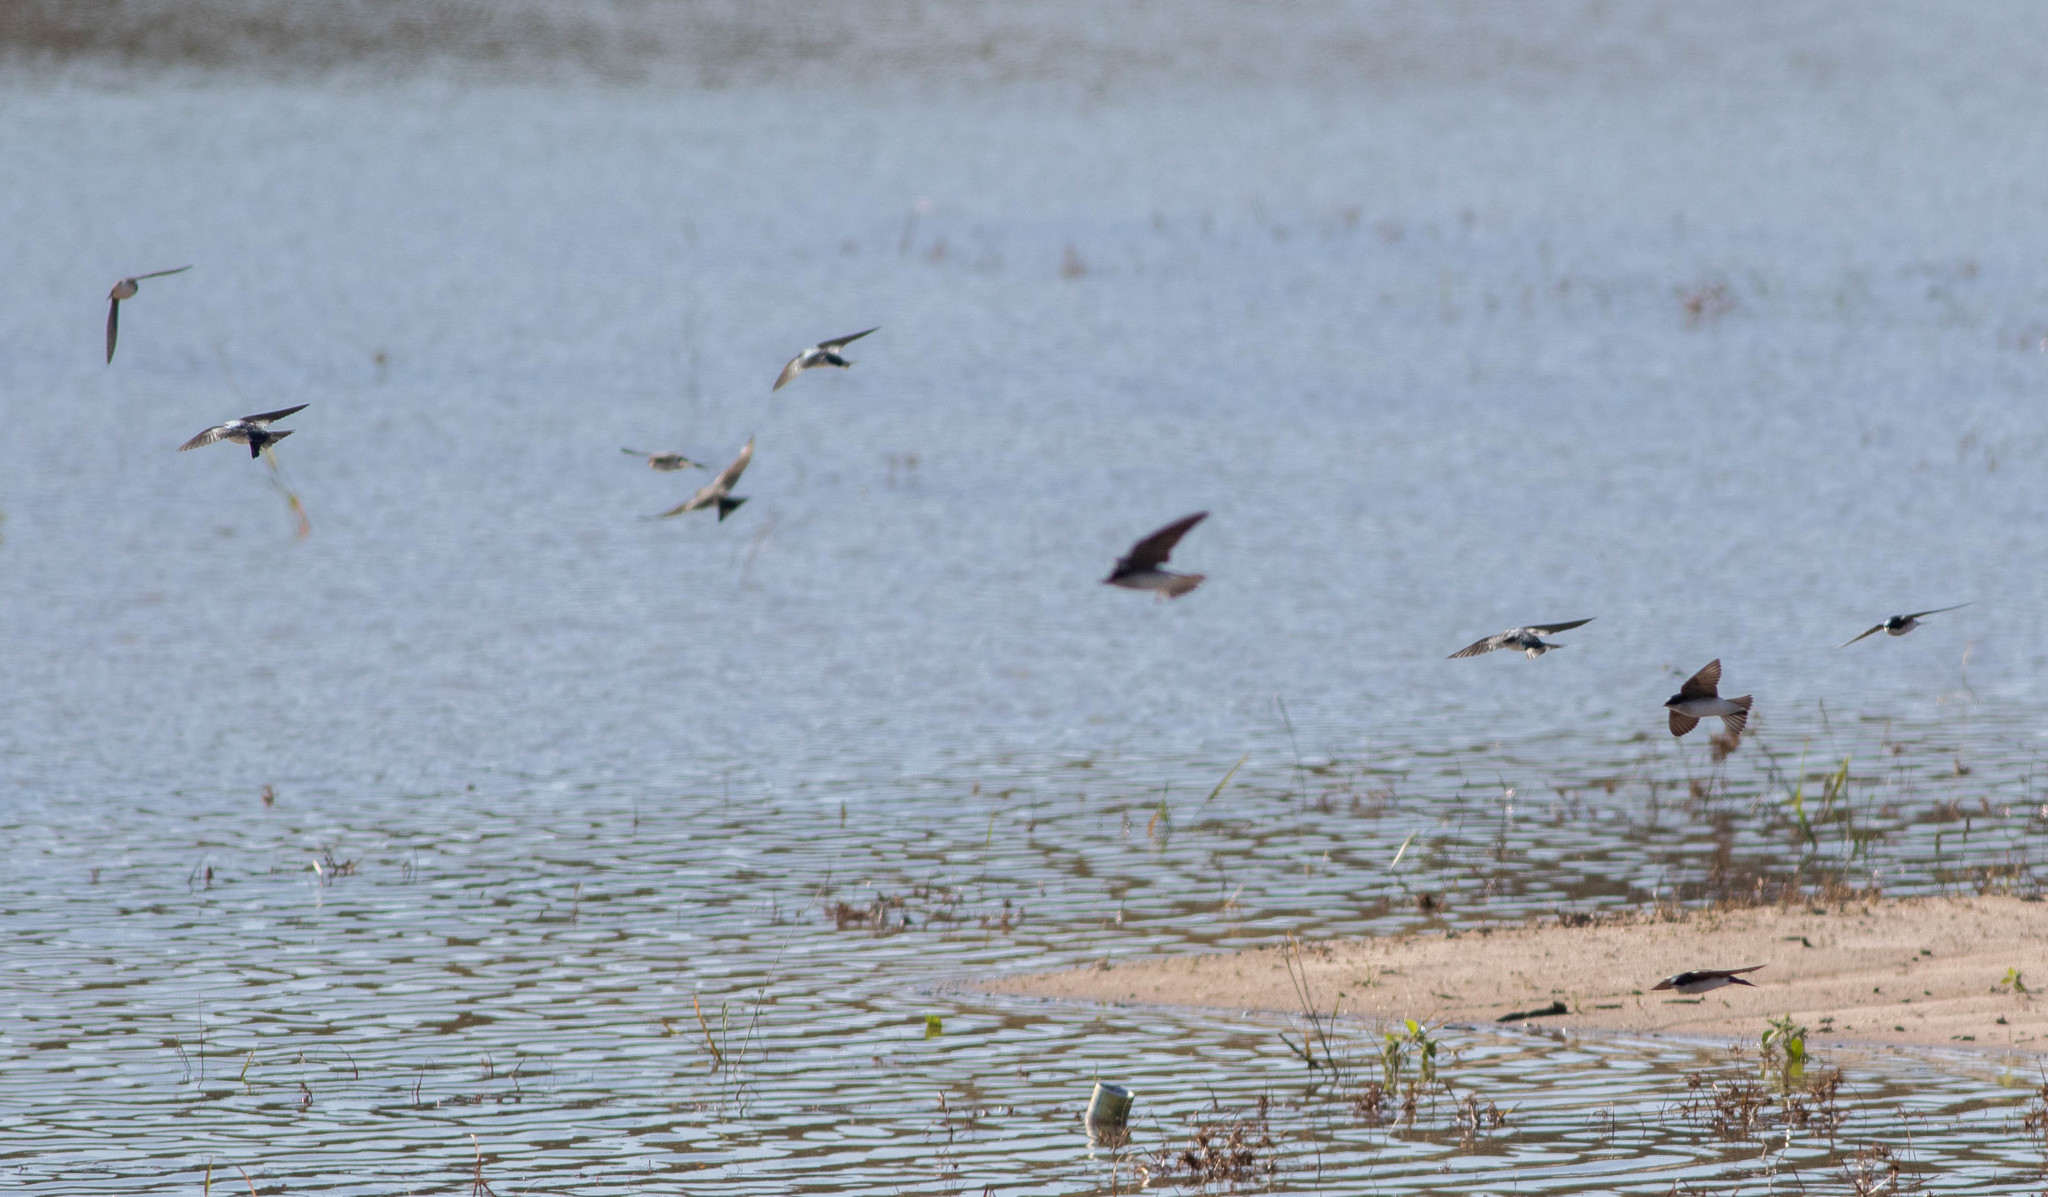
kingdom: Animalia
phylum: Chordata
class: Aves
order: Passeriformes
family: Hirundinidae
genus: Tachycineta
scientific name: Tachycineta bicolor
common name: Tree swallow
